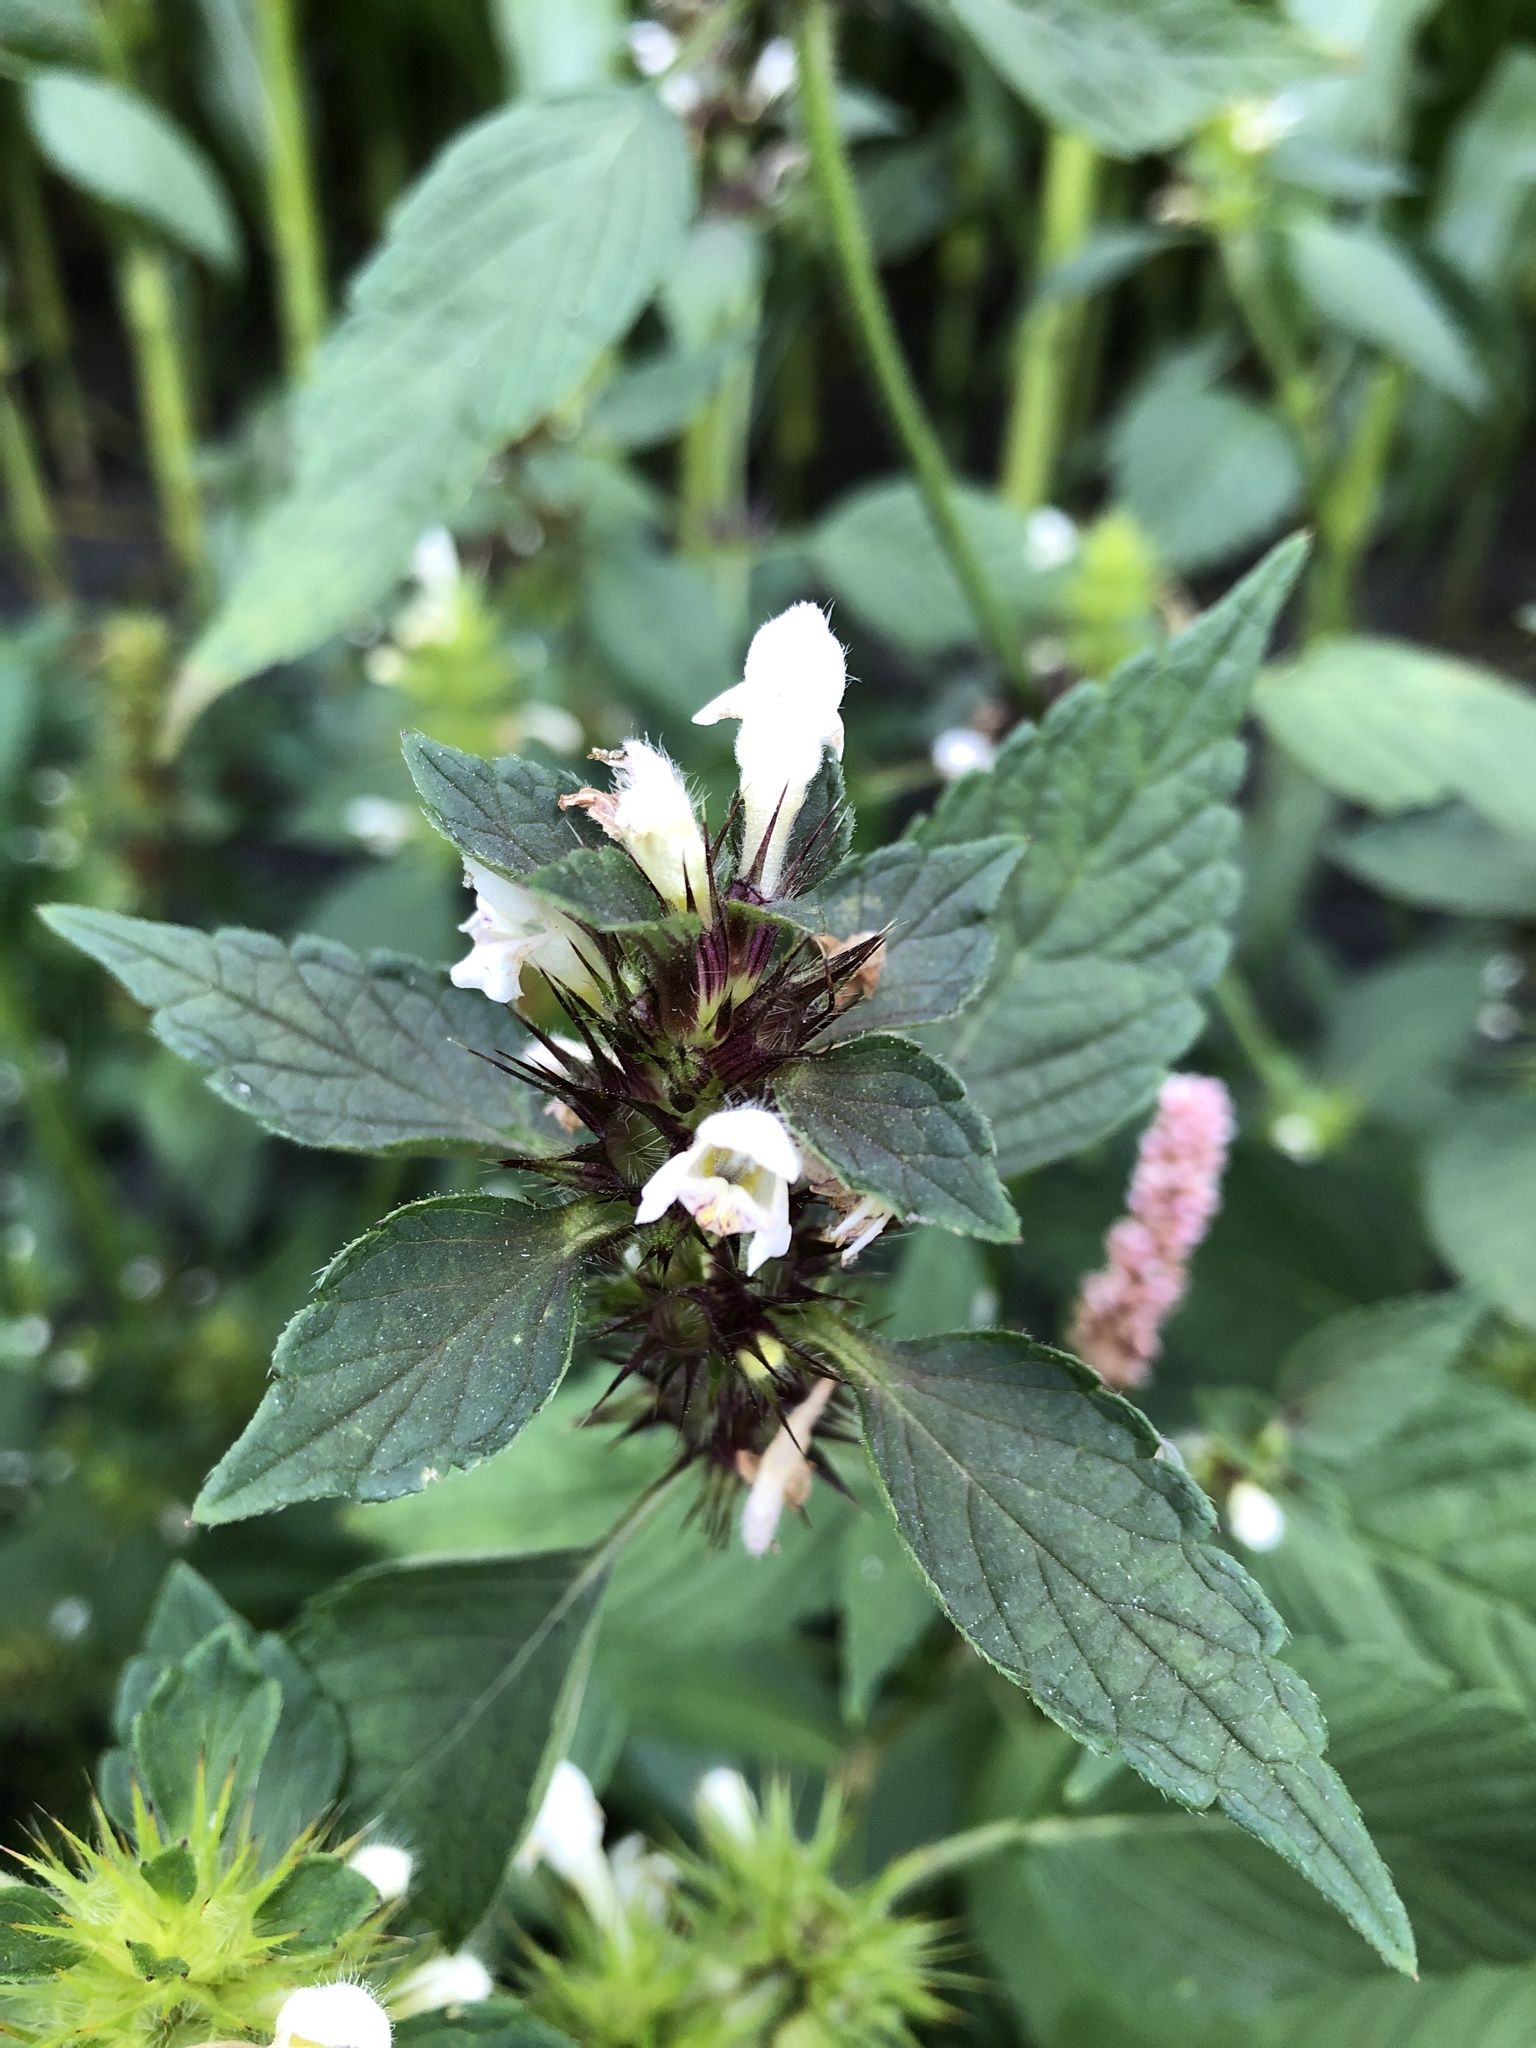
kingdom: Plantae
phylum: Tracheophyta
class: Magnoliopsida
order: Lamiales
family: Lamiaceae
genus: Galeopsis
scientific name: Galeopsis bifida
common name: Bifid hemp-nettle
